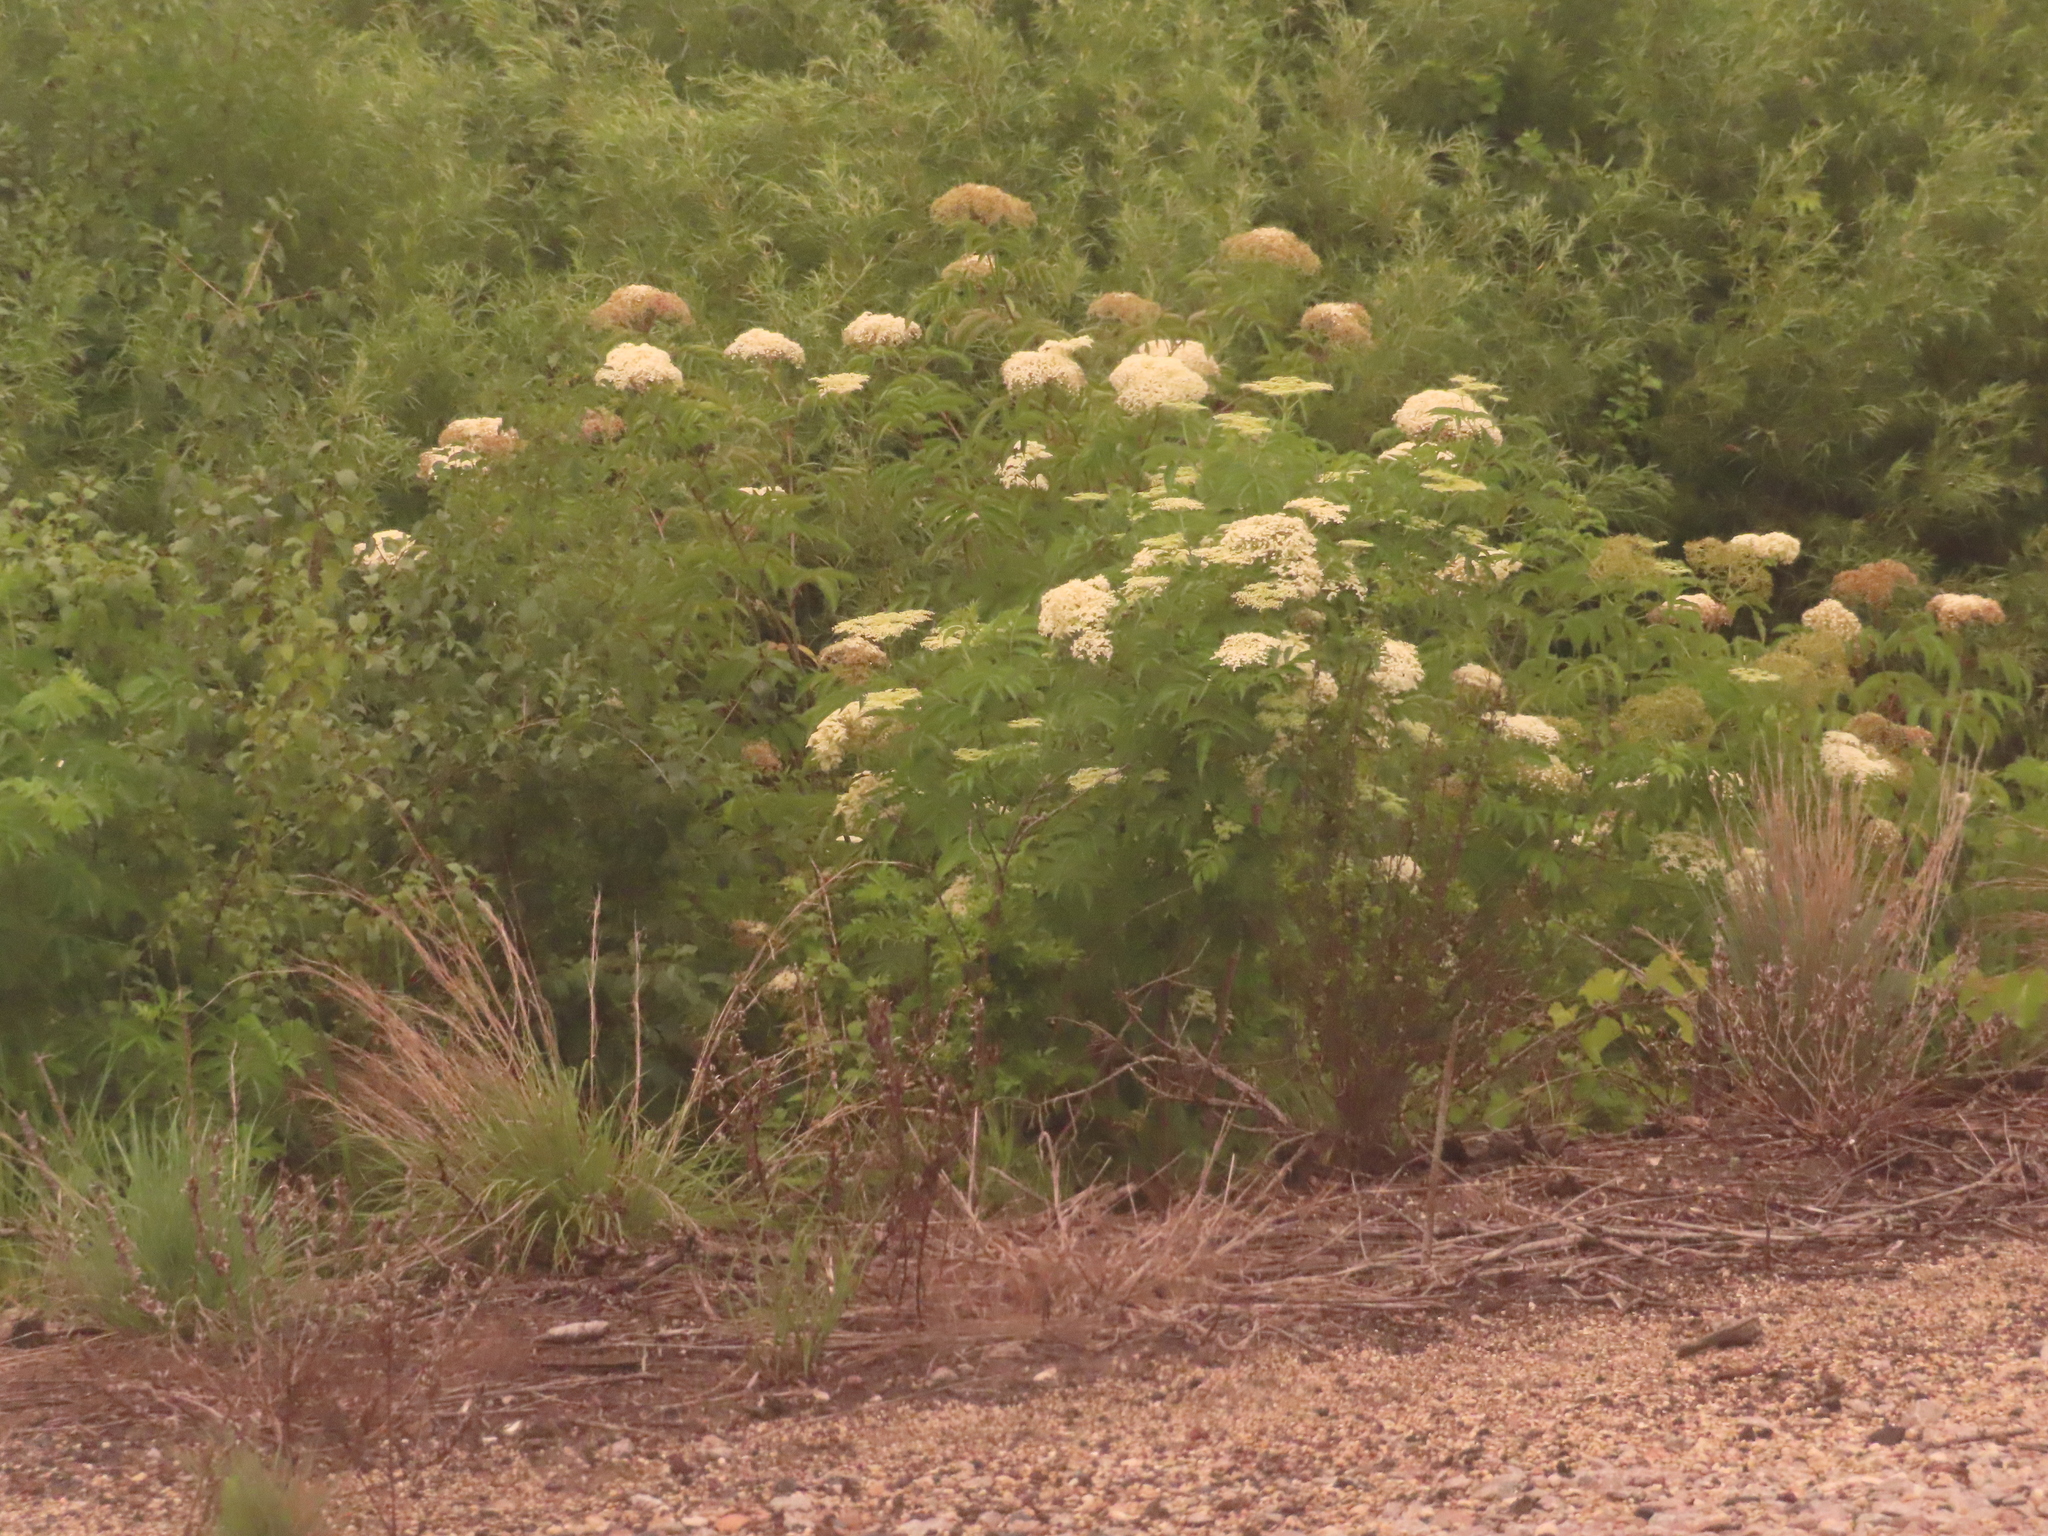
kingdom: Plantae
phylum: Tracheophyta
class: Magnoliopsida
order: Dipsacales
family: Viburnaceae
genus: Sambucus
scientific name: Sambucus canadensis
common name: American elder
